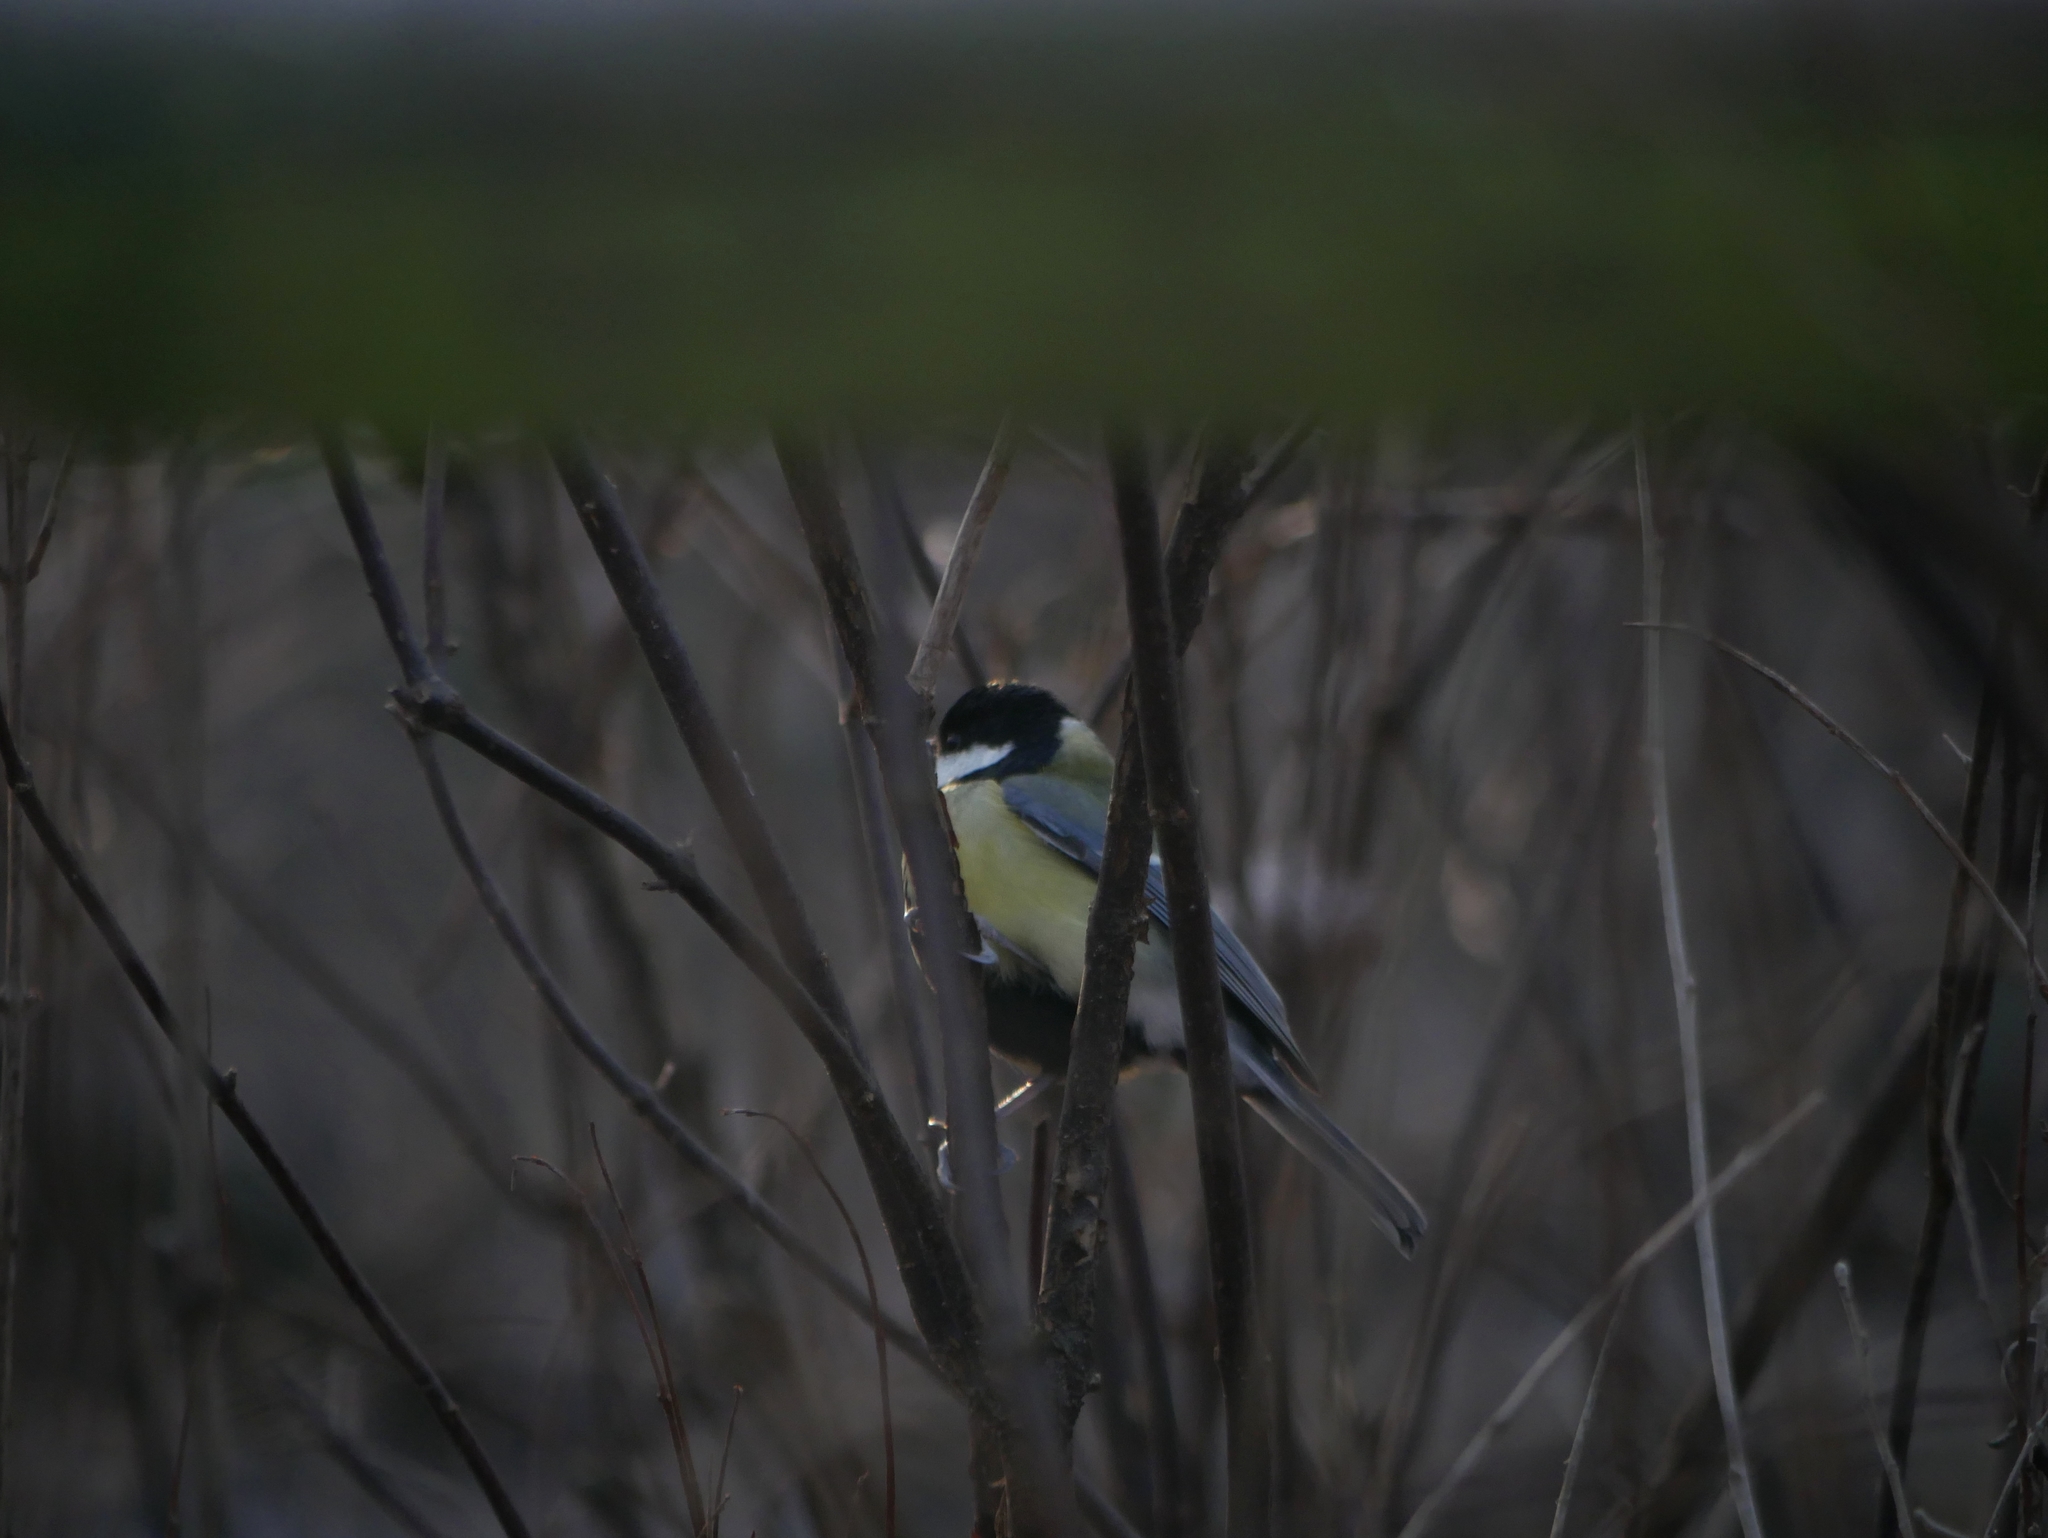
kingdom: Animalia
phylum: Chordata
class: Aves
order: Passeriformes
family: Paridae
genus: Parus
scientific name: Parus major
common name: Great tit
